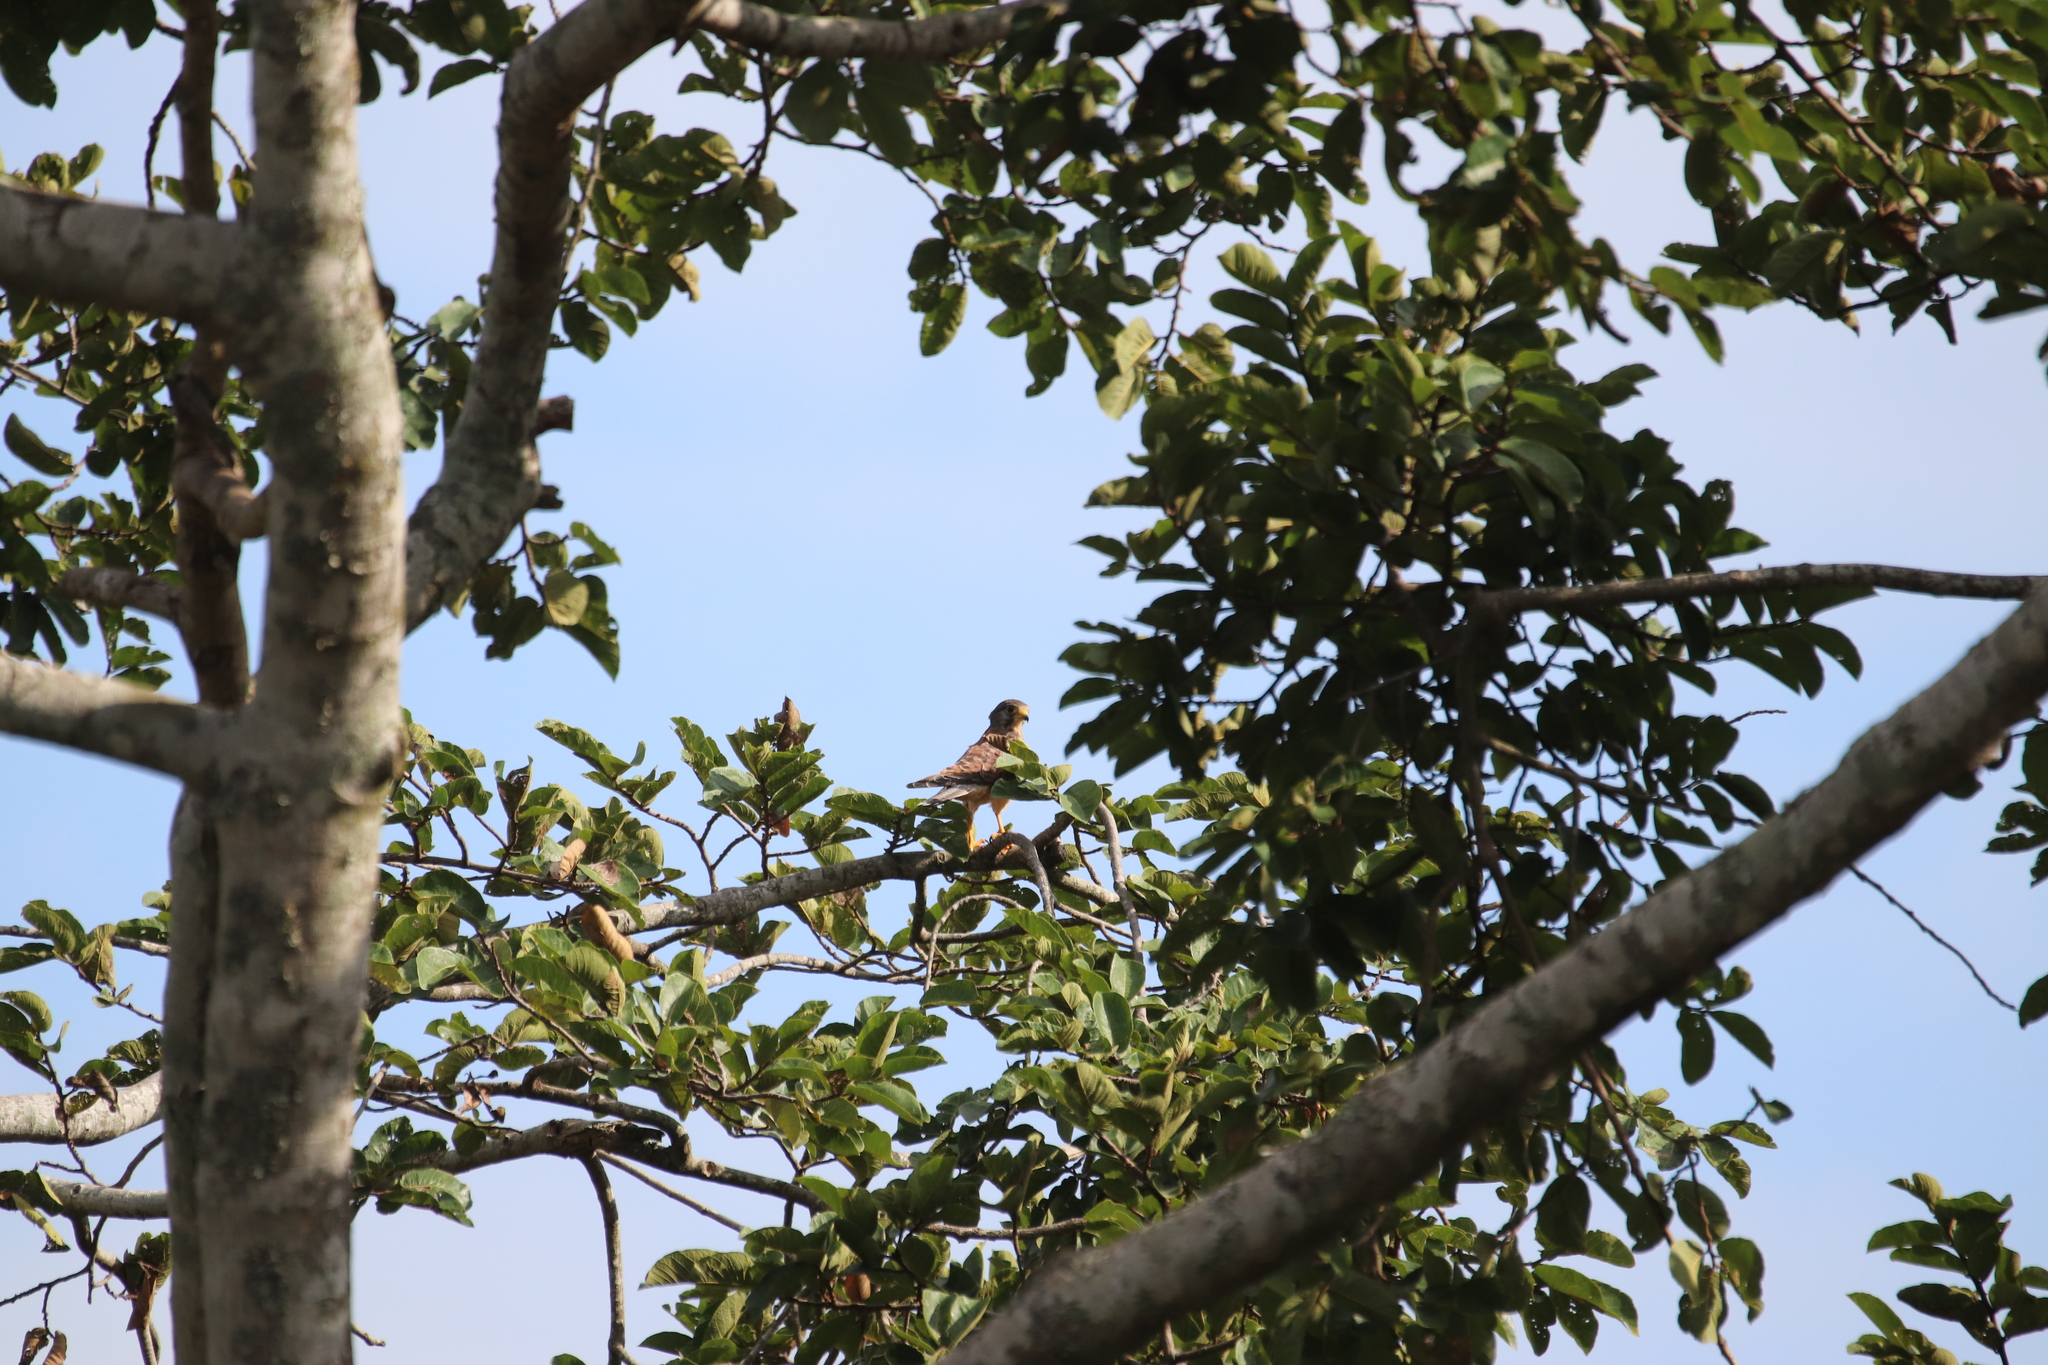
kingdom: Animalia
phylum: Chordata
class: Aves
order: Falconiformes
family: Falconidae
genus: Falco
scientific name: Falco tinnunculus
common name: Common kestrel
